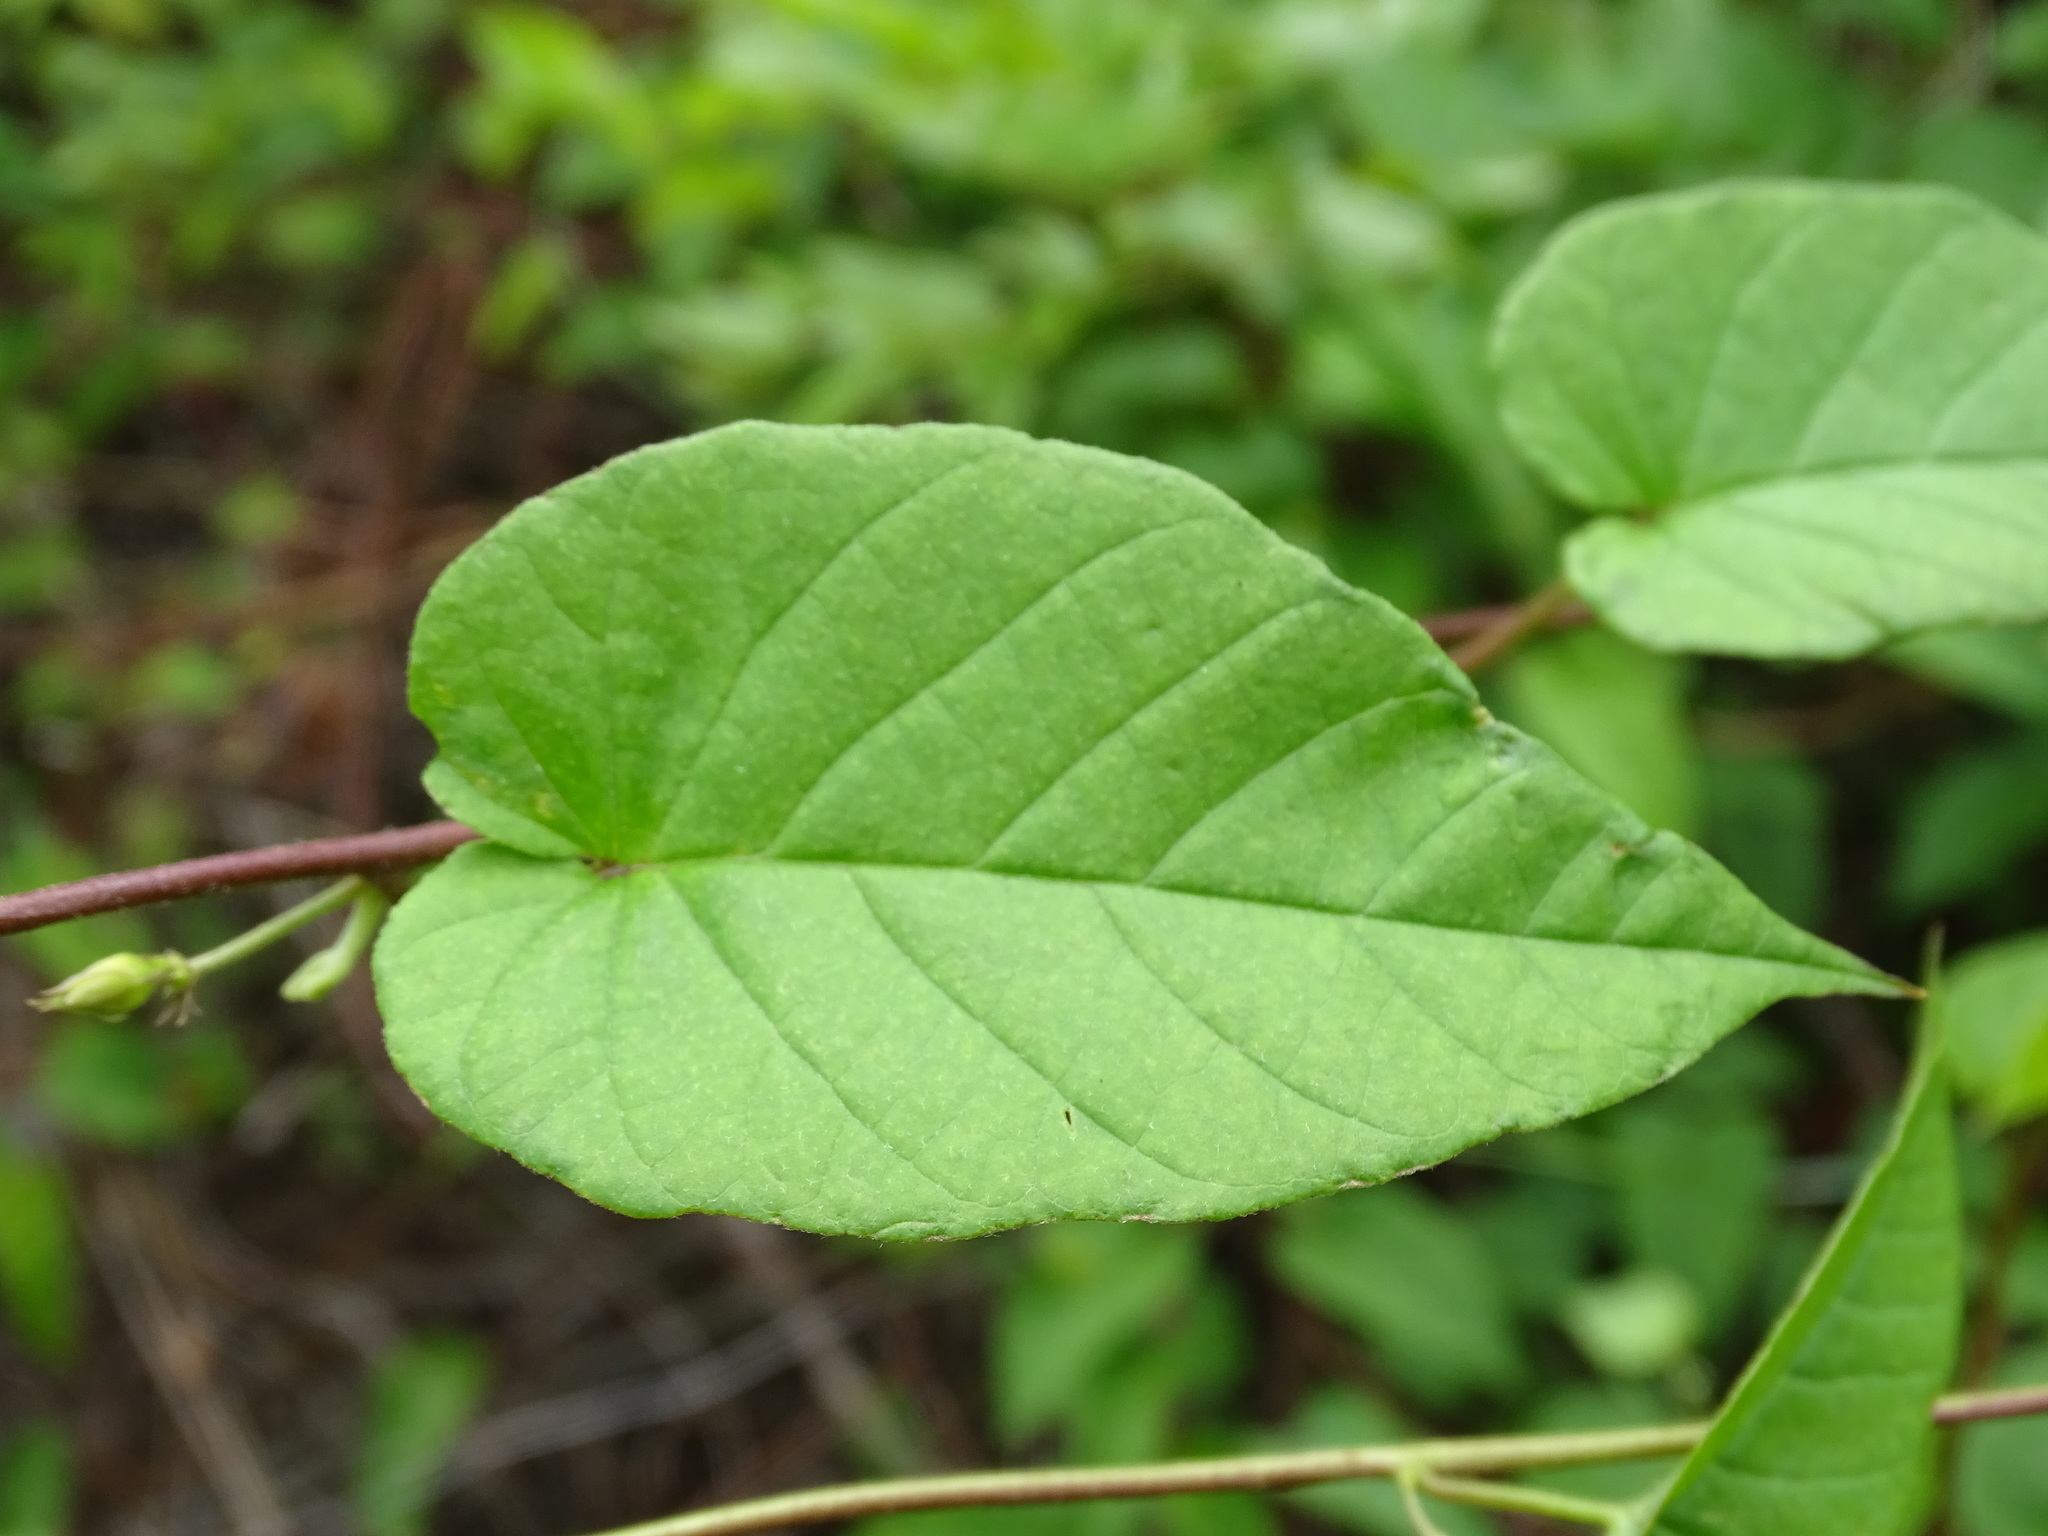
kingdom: Plantae
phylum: Tracheophyta
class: Magnoliopsida
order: Solanales
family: Convolvulaceae
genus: Jacquemontia
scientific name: Jacquemontia pentanthos
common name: Skyblue clustervine
